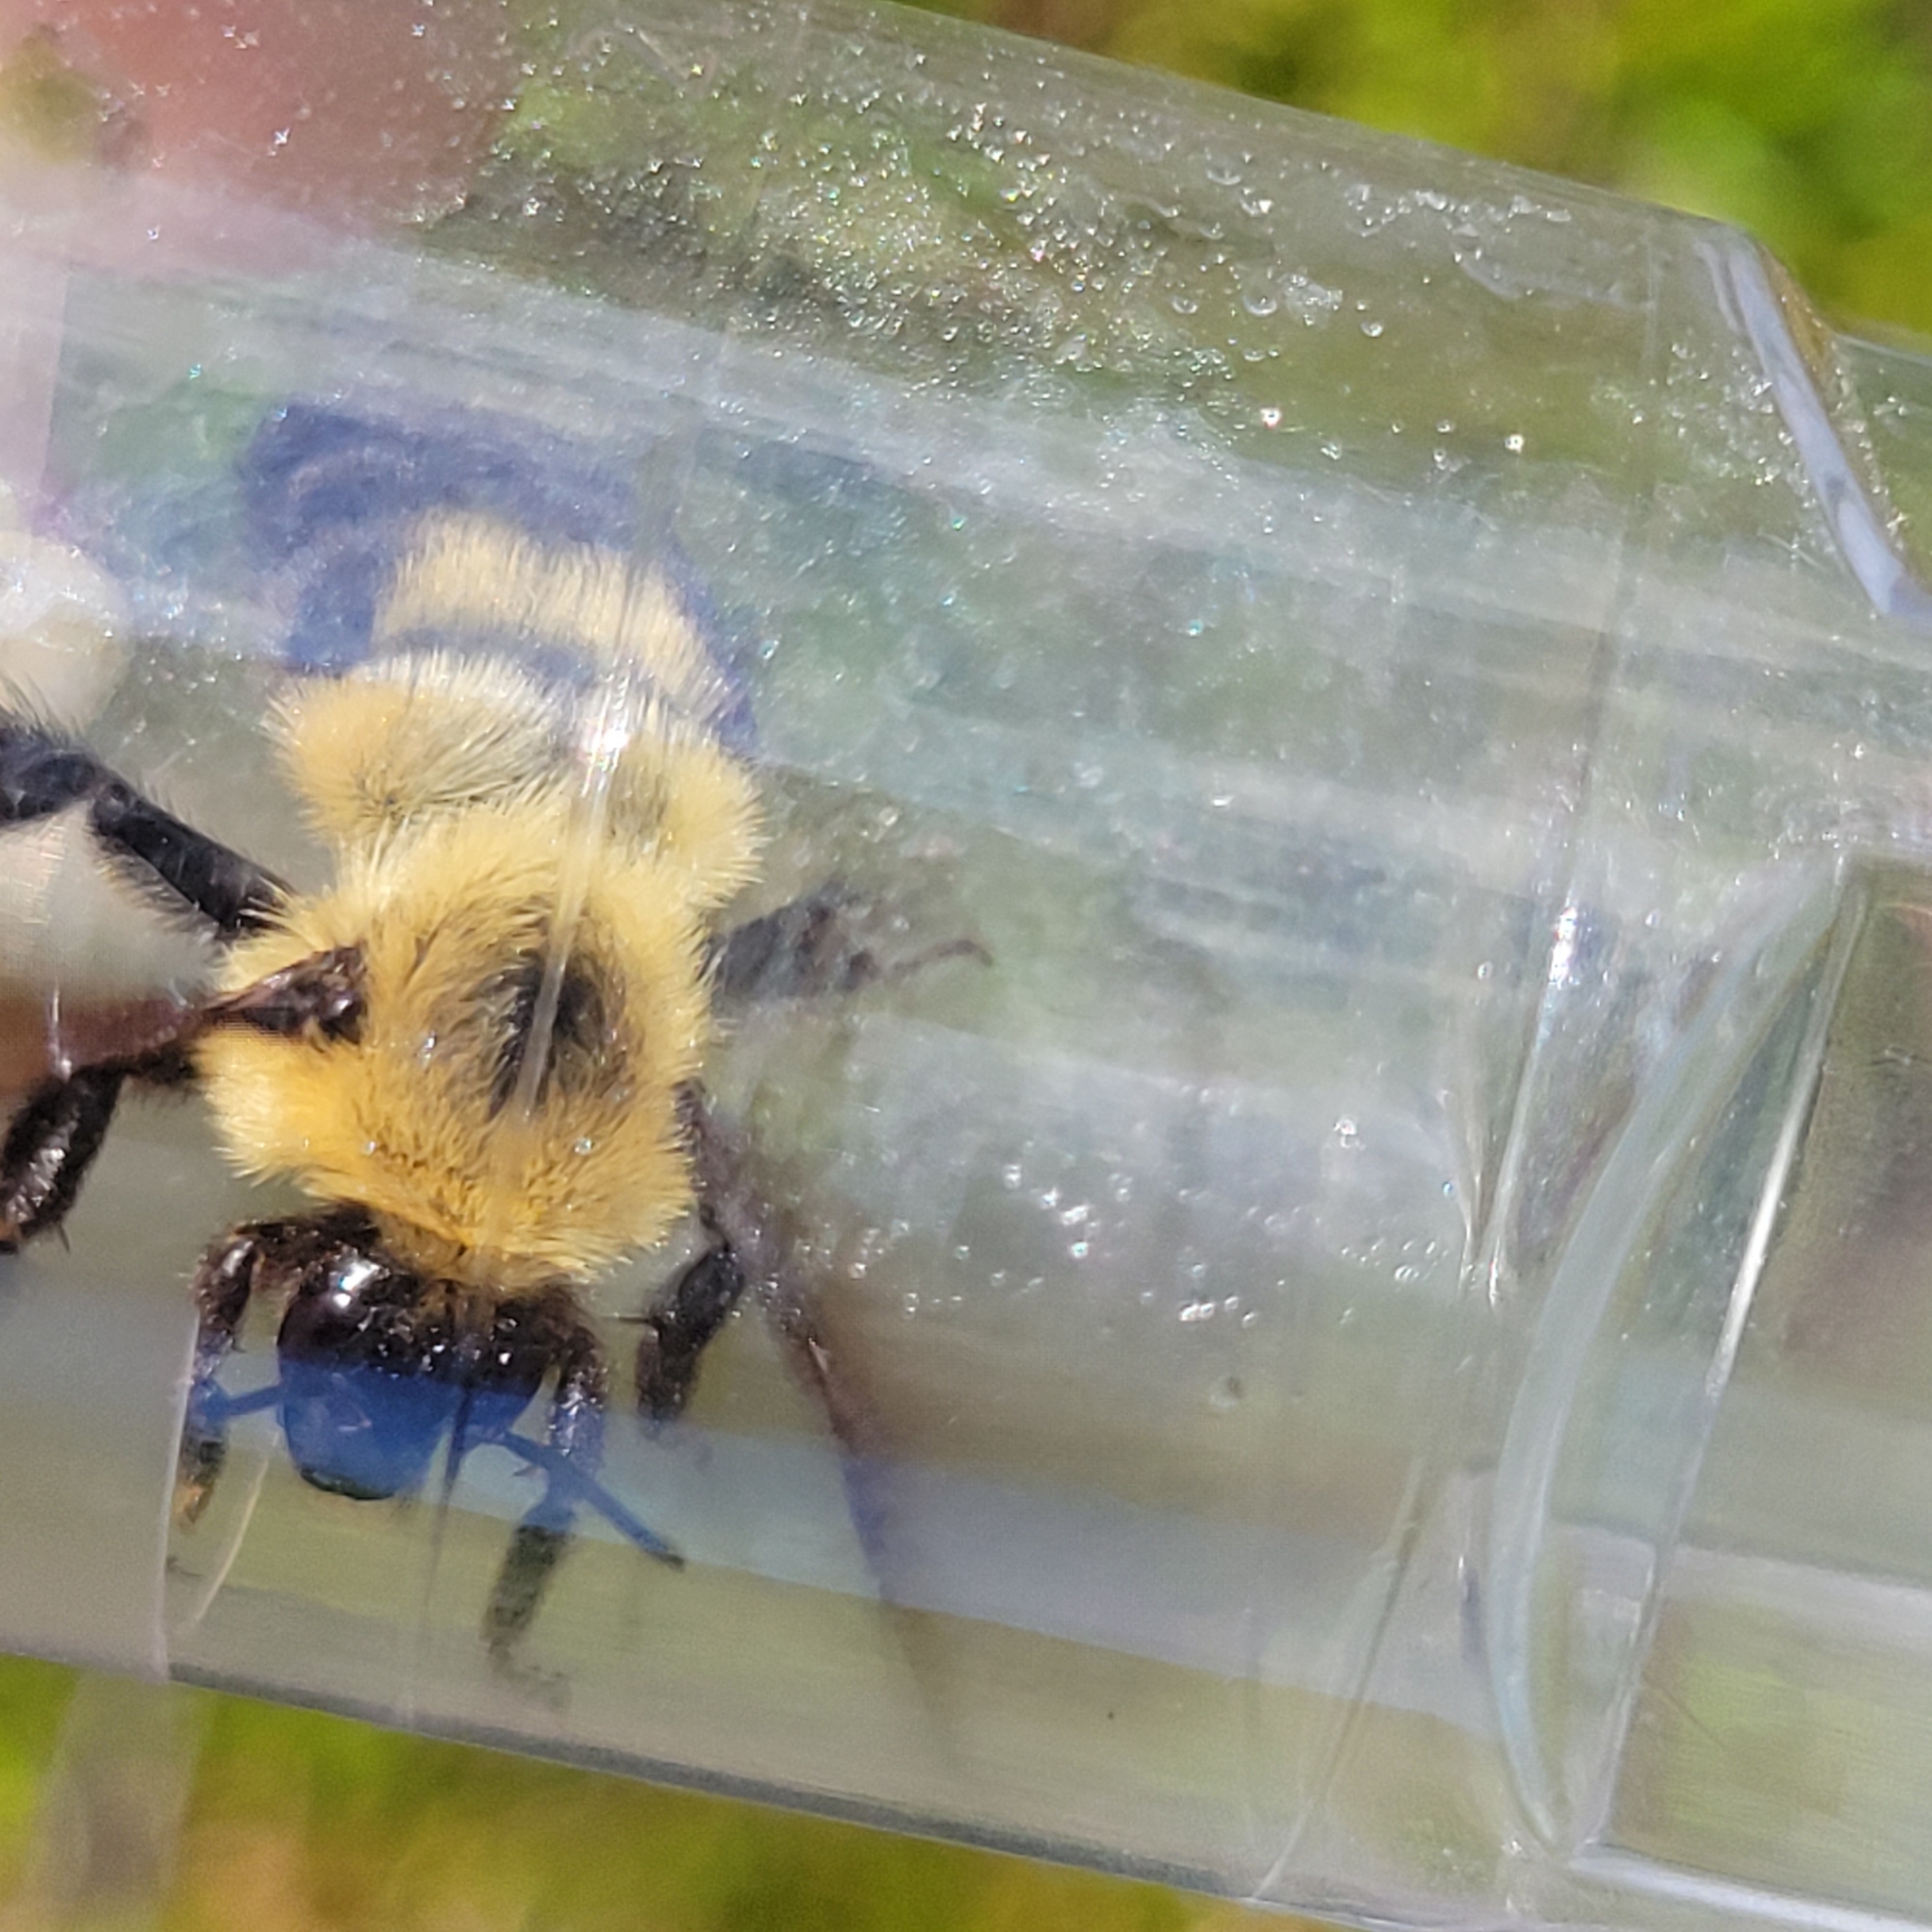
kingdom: Animalia
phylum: Arthropoda
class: Insecta
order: Hymenoptera
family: Apidae
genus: Bombus
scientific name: Bombus bimaculatus
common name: Two-spotted bumble bee
